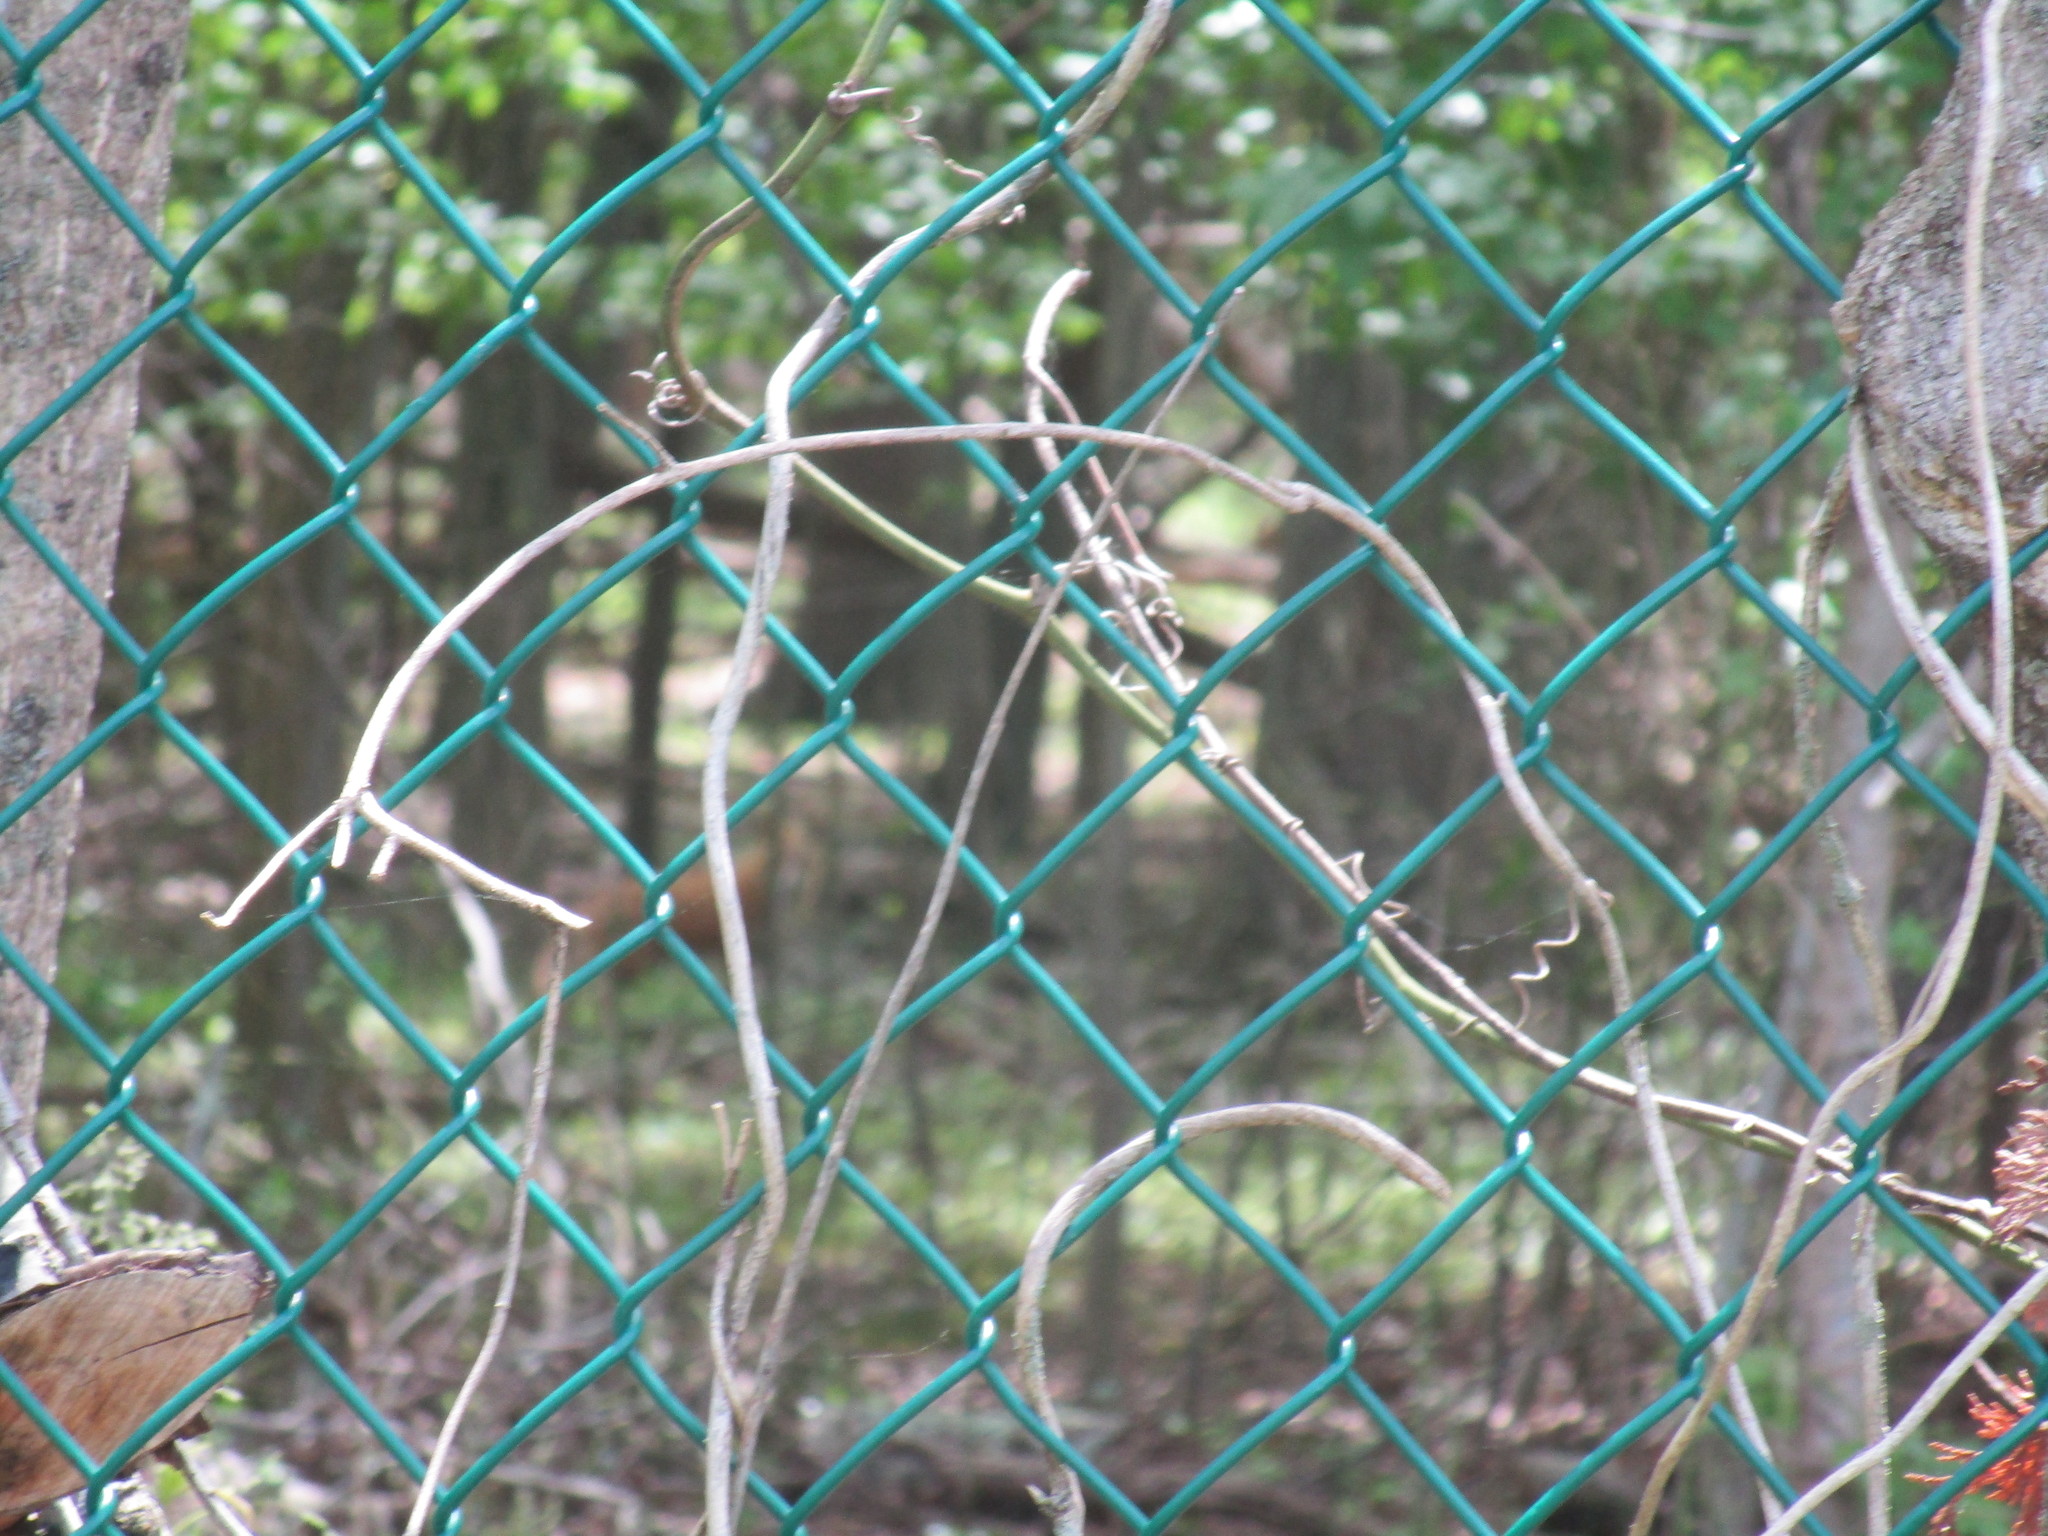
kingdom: Animalia
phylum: Chordata
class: Mammalia
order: Carnivora
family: Canidae
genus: Vulpes
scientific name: Vulpes vulpes
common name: Red fox
